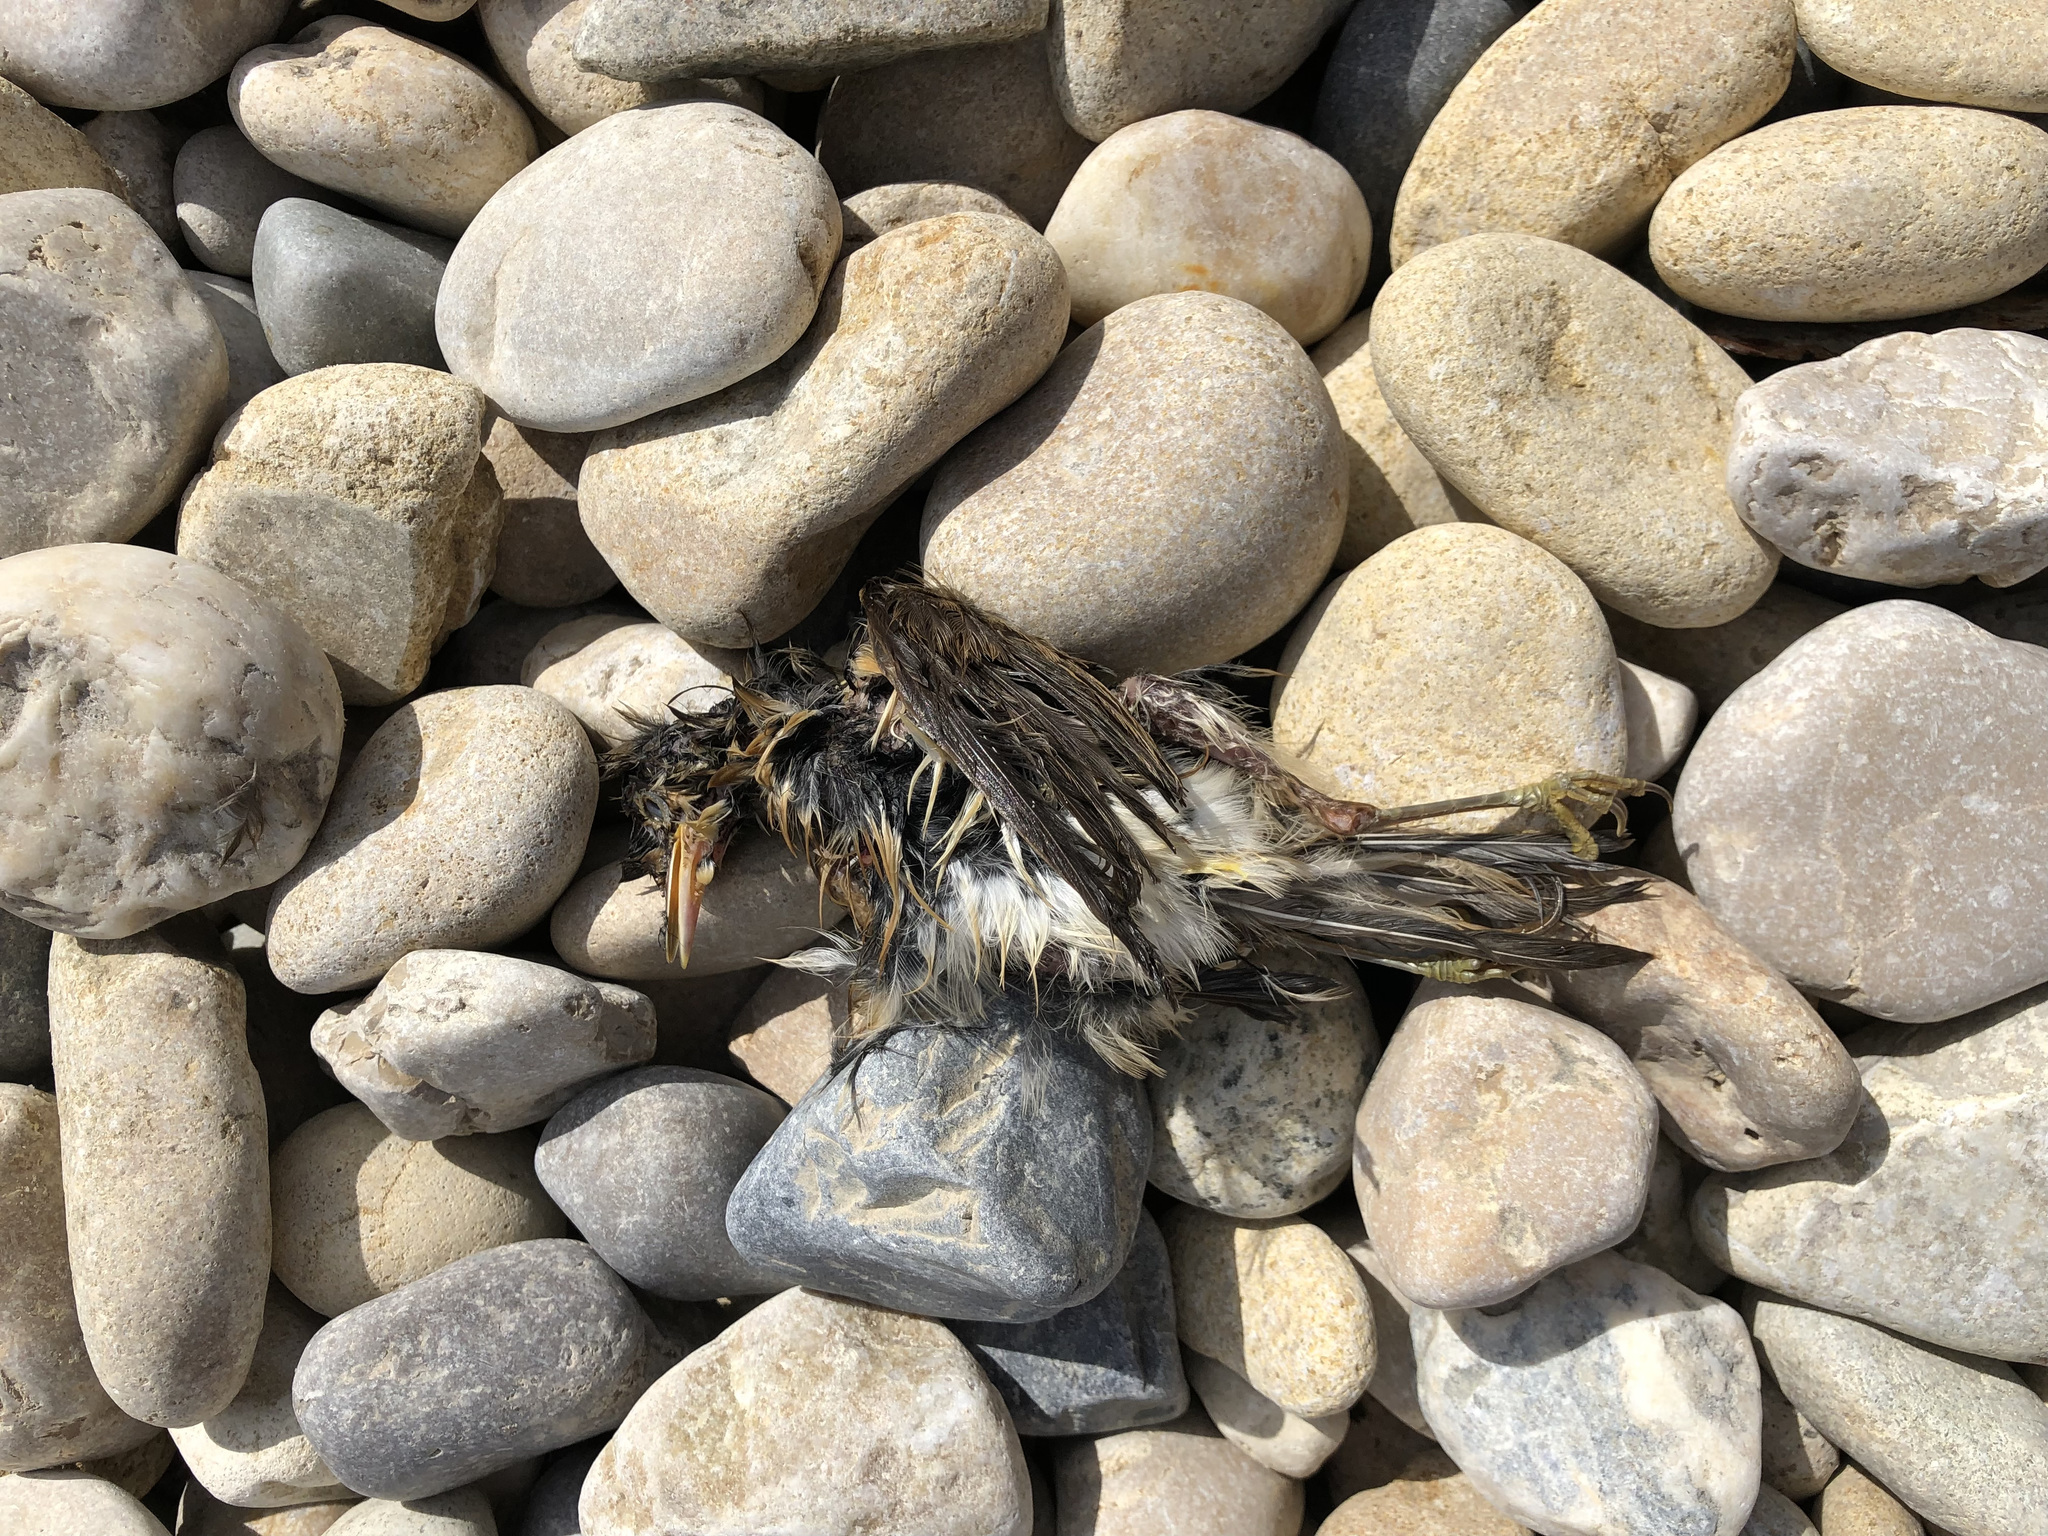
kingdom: Animalia
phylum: Chordata
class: Aves
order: Passeriformes
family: Muscicapidae
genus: Erithacus
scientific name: Erithacus rubecula
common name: European robin
